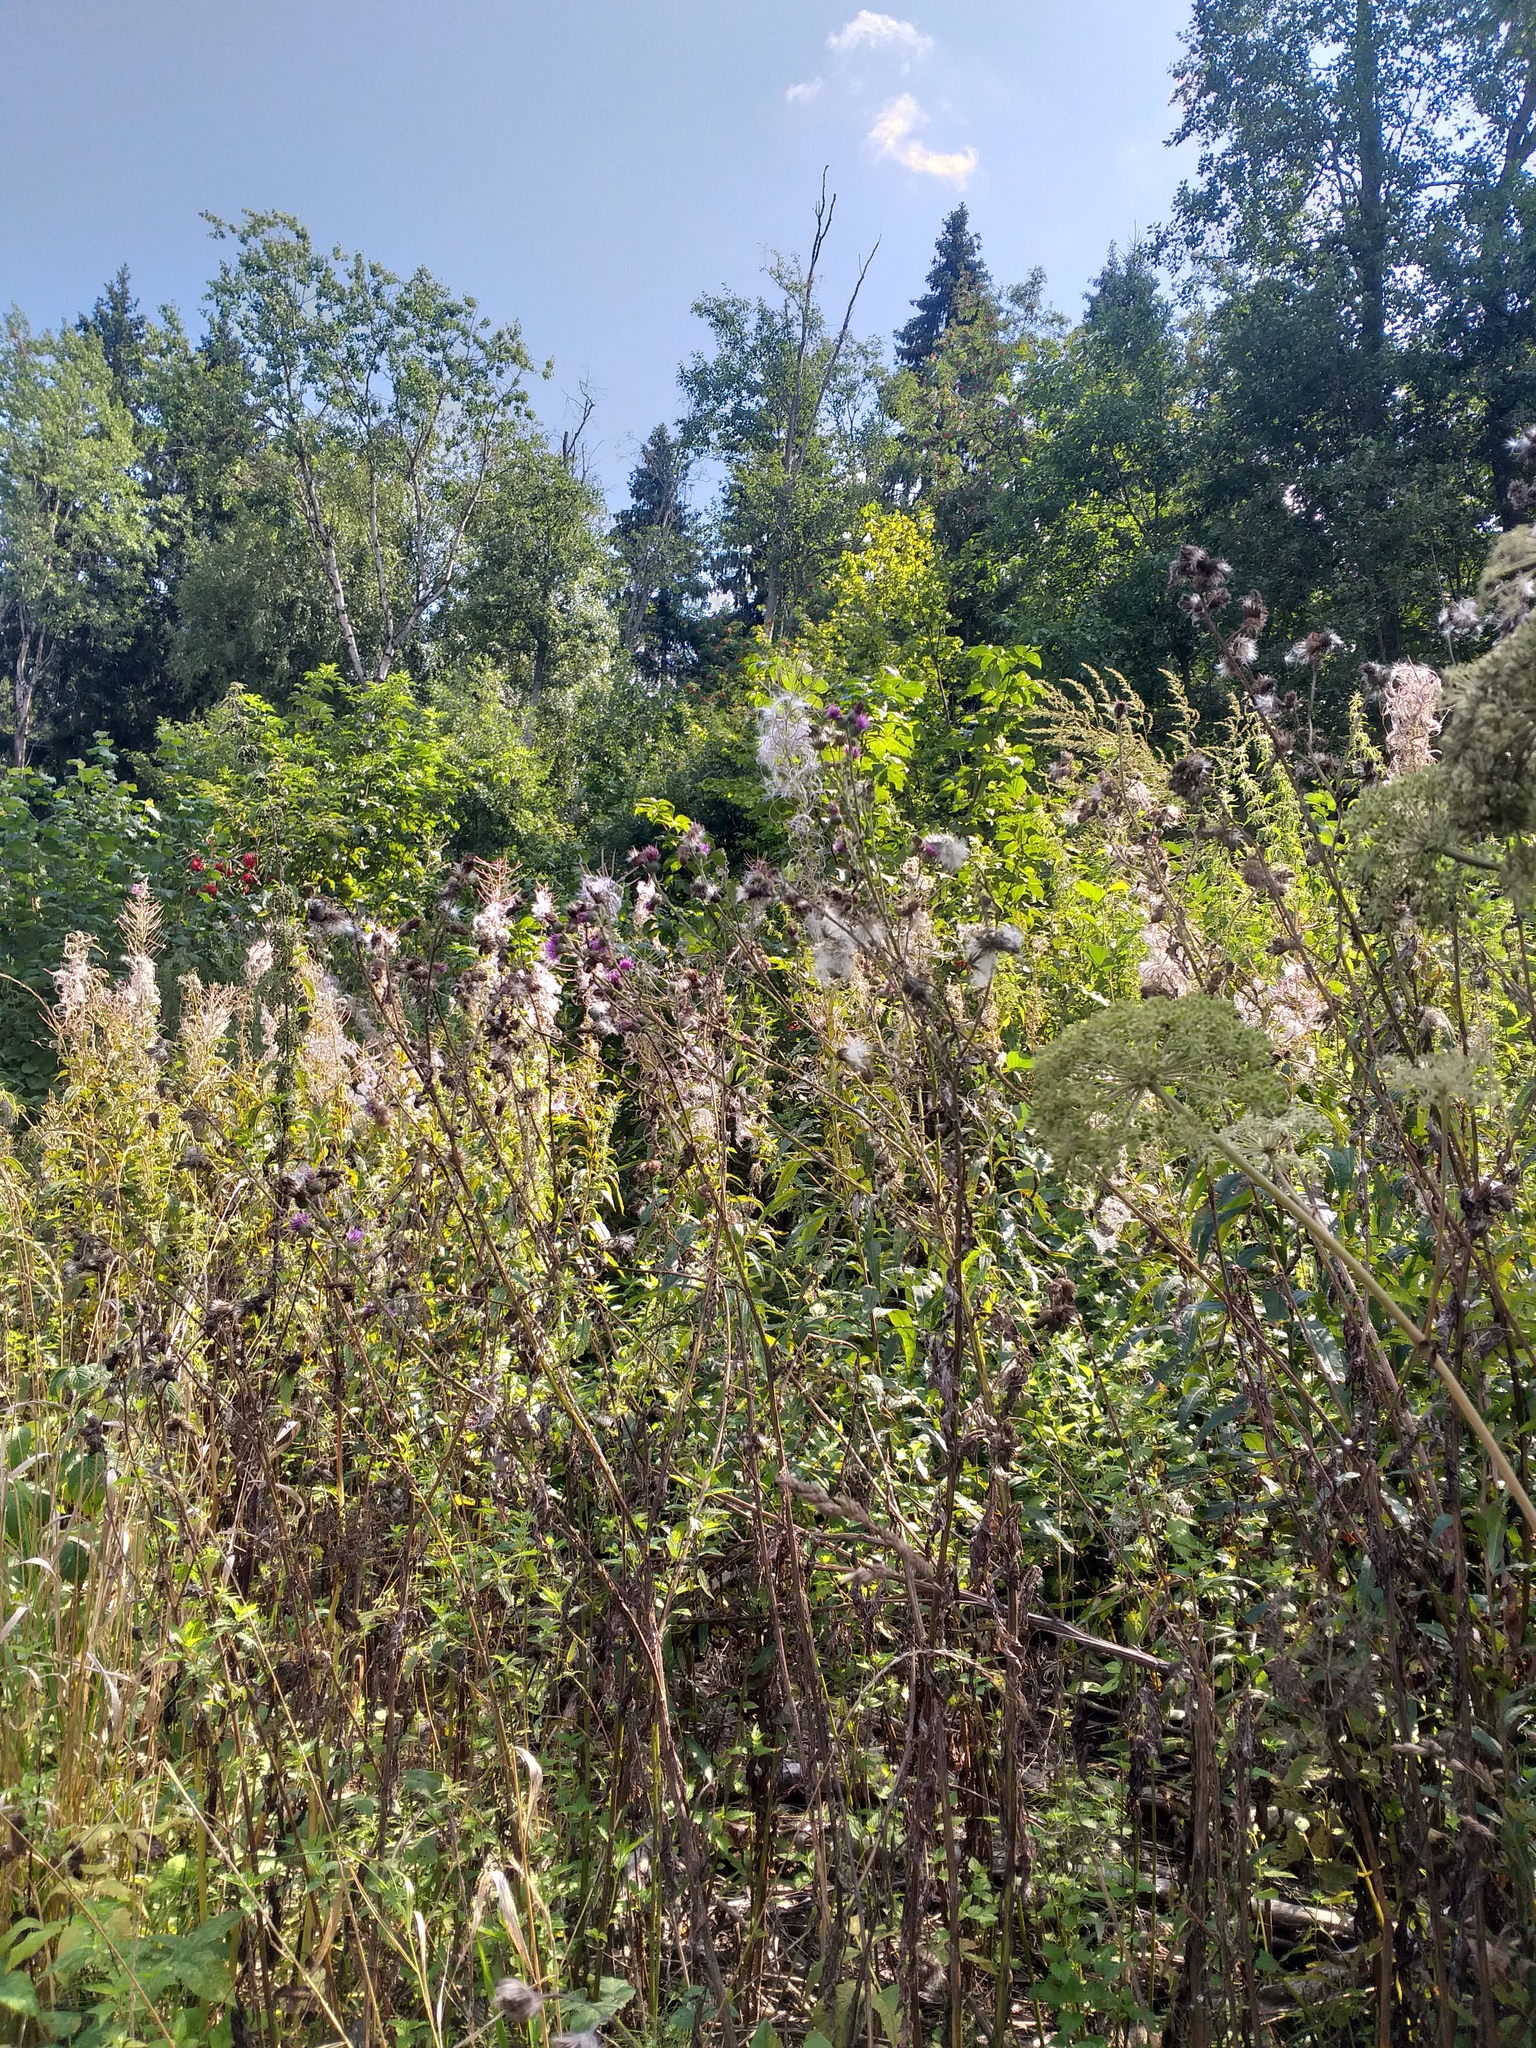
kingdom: Plantae
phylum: Tracheophyta
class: Magnoliopsida
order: Asterales
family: Asteraceae
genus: Carduus
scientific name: Carduus crispus
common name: Welted thistle
